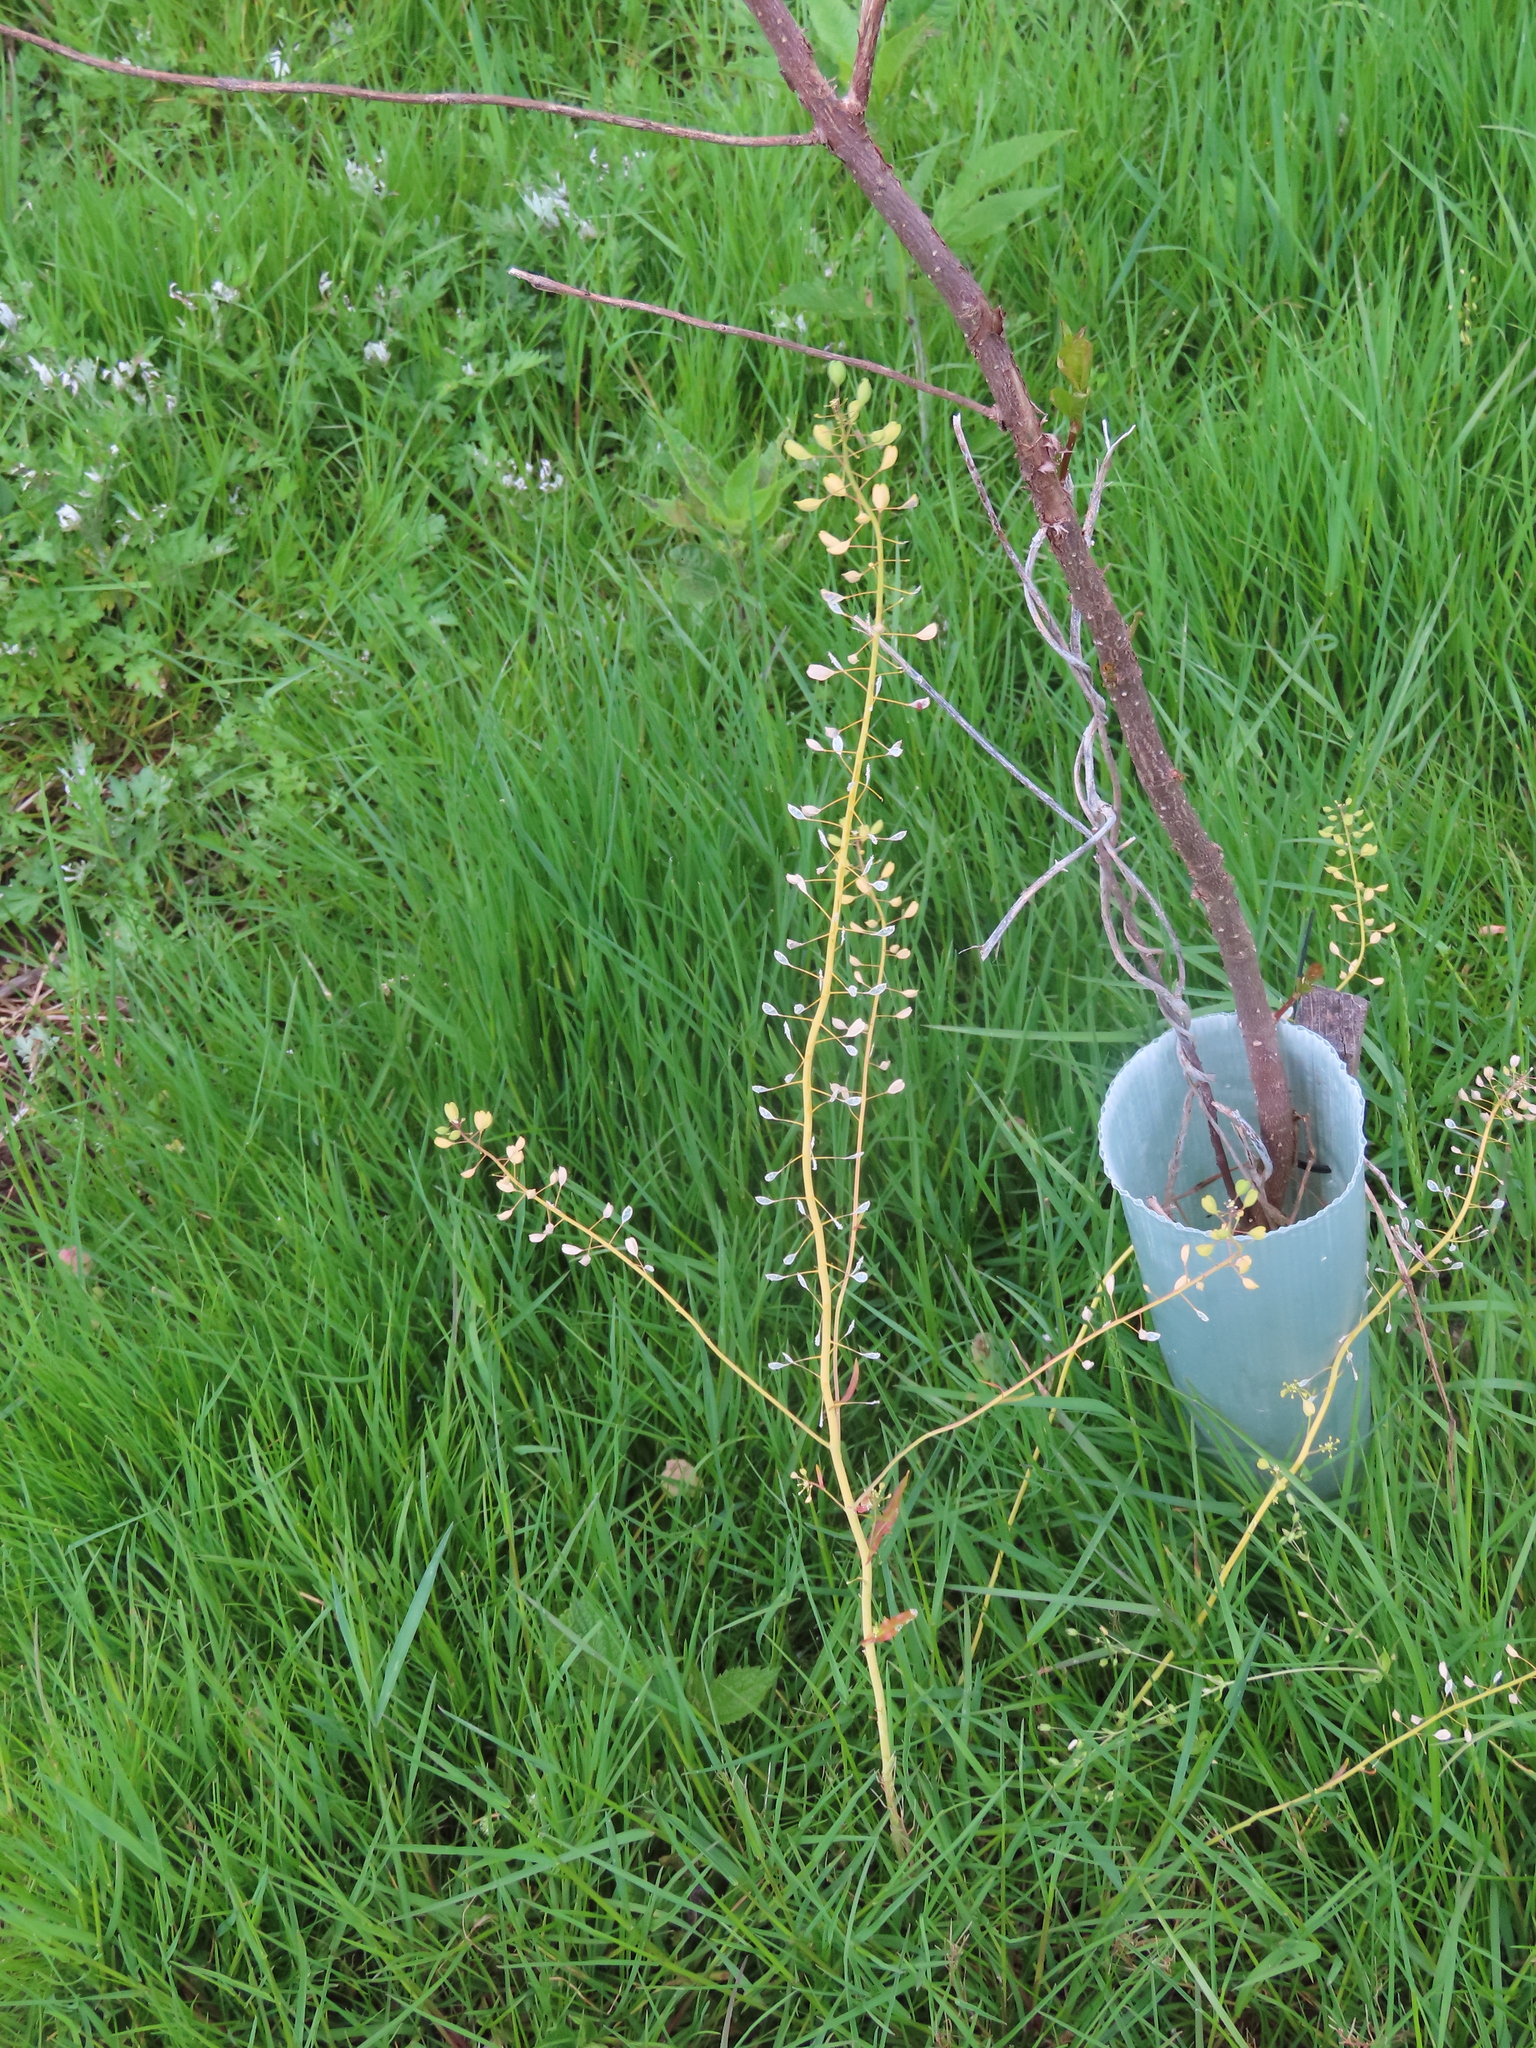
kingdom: Plantae
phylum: Tracheophyta
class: Magnoliopsida
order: Brassicales
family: Brassicaceae
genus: Mummenhoffia
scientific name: Mummenhoffia alliacea
